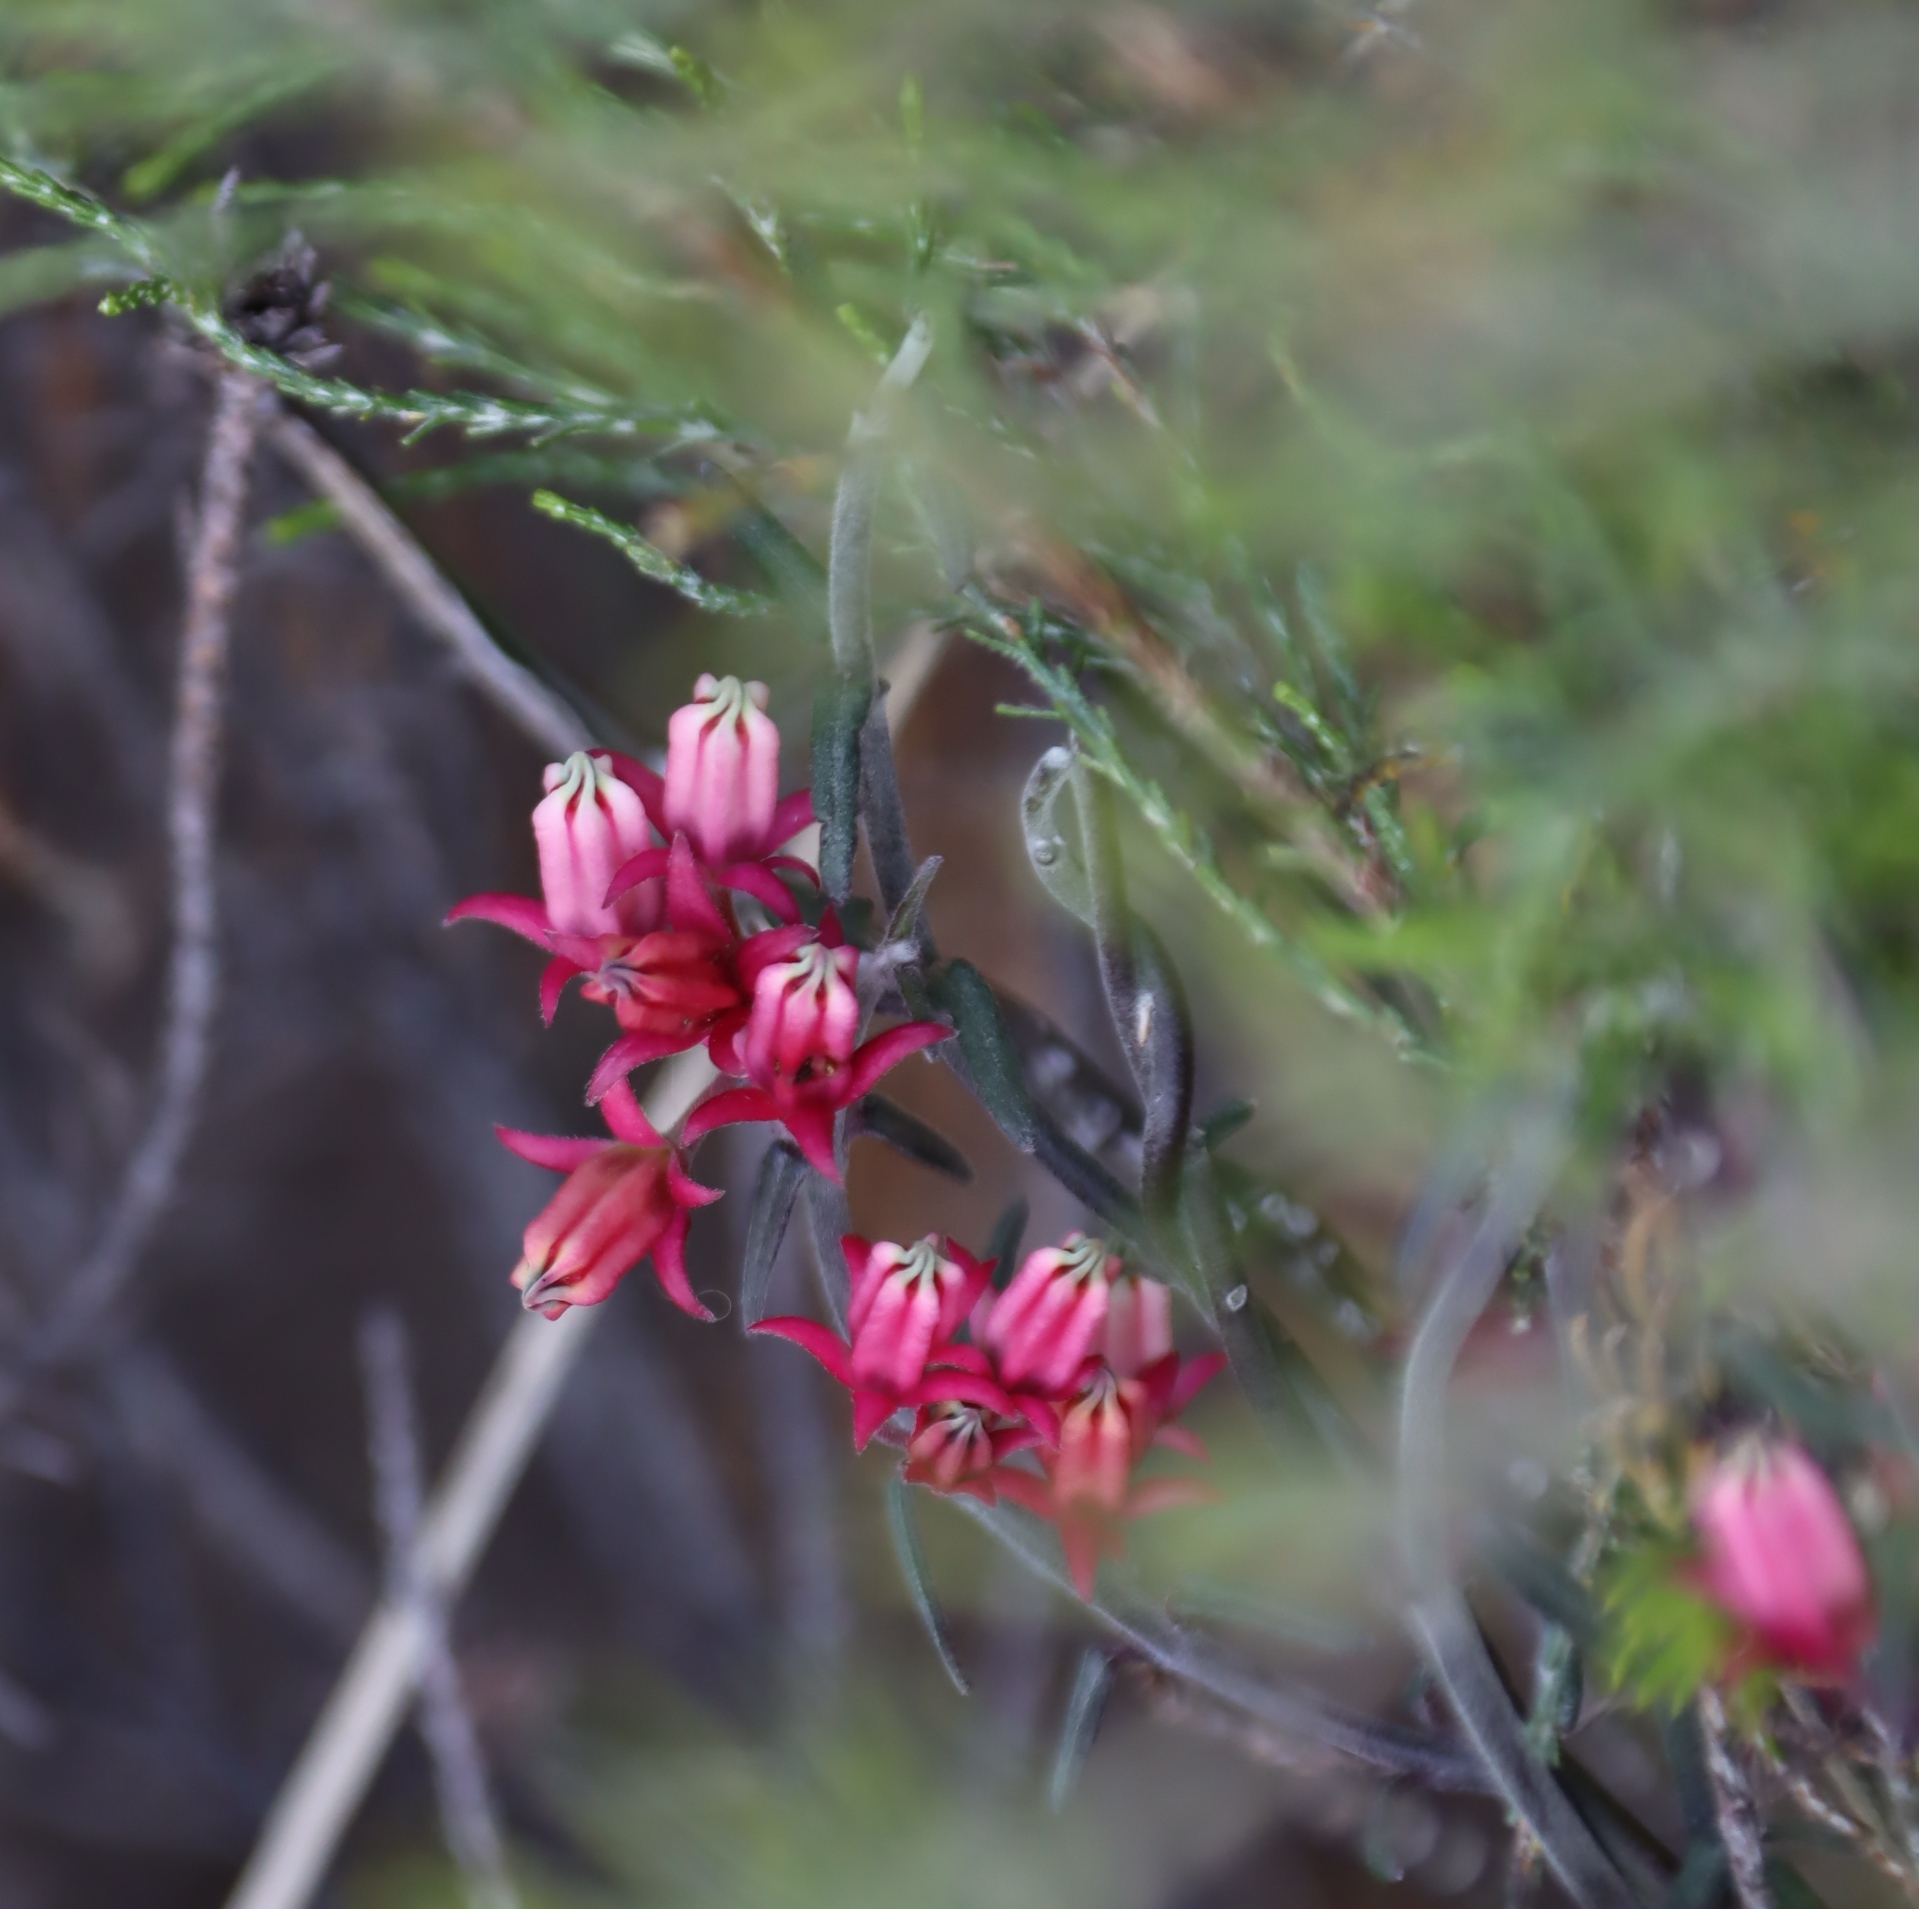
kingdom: Plantae
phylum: Tracheophyta
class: Magnoliopsida
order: Gentianales
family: Apocynaceae
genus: Microloma
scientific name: Microloma sagittatum
